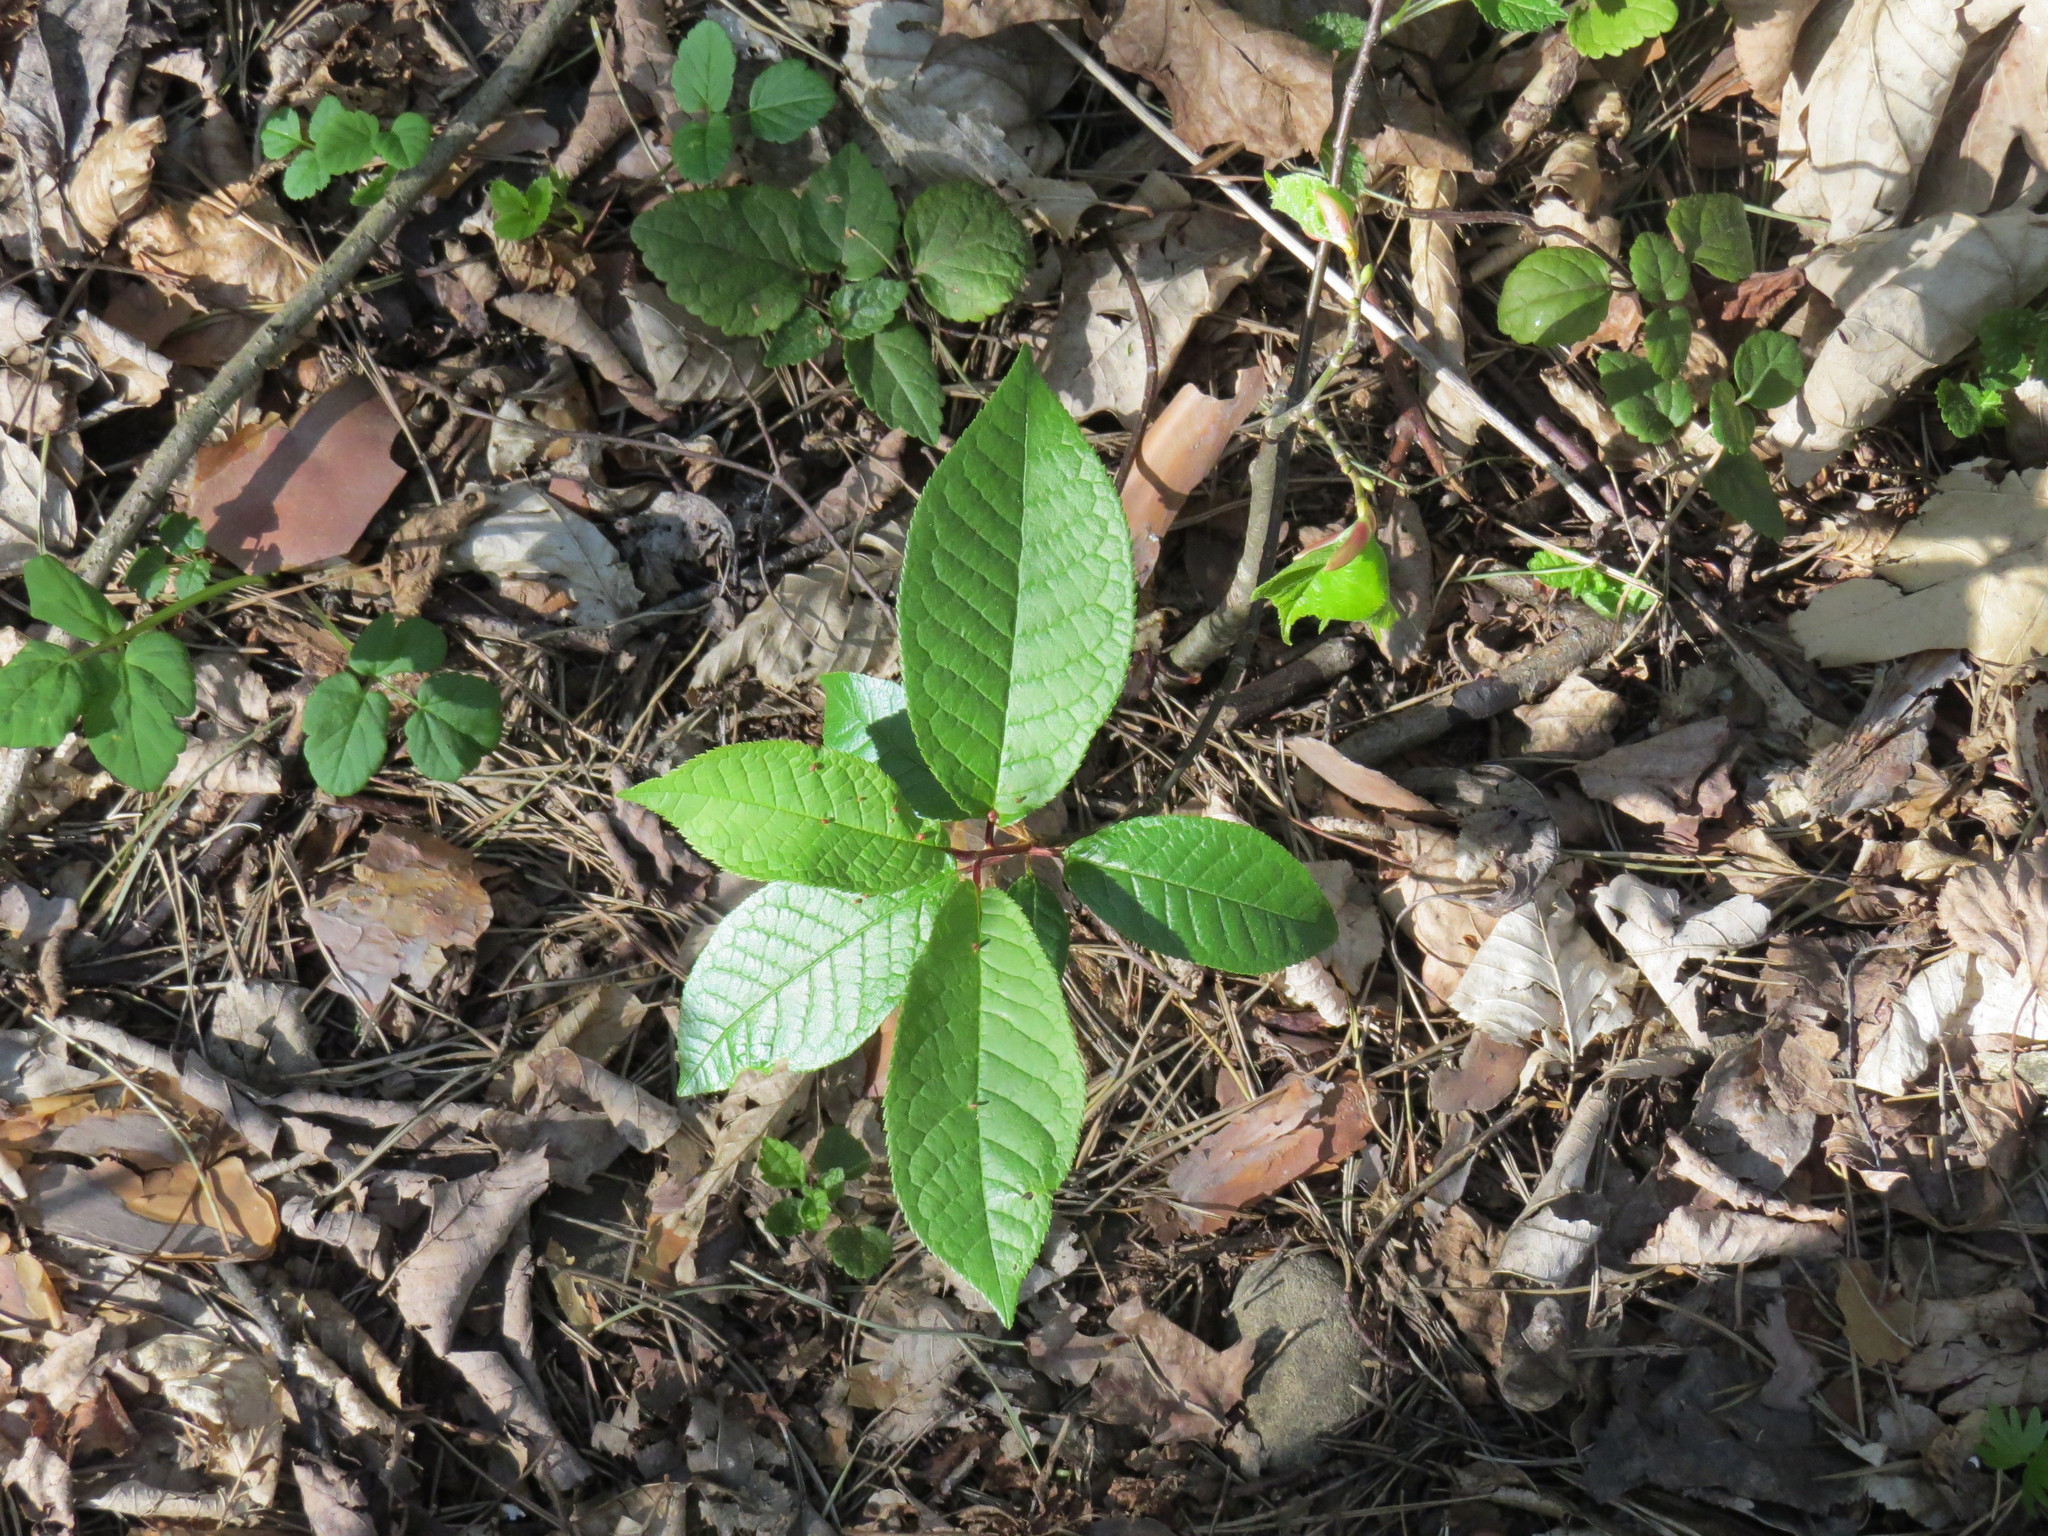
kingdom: Plantae
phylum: Tracheophyta
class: Magnoliopsida
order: Rosales
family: Rosaceae
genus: Prunus
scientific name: Prunus padus
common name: Bird cherry
